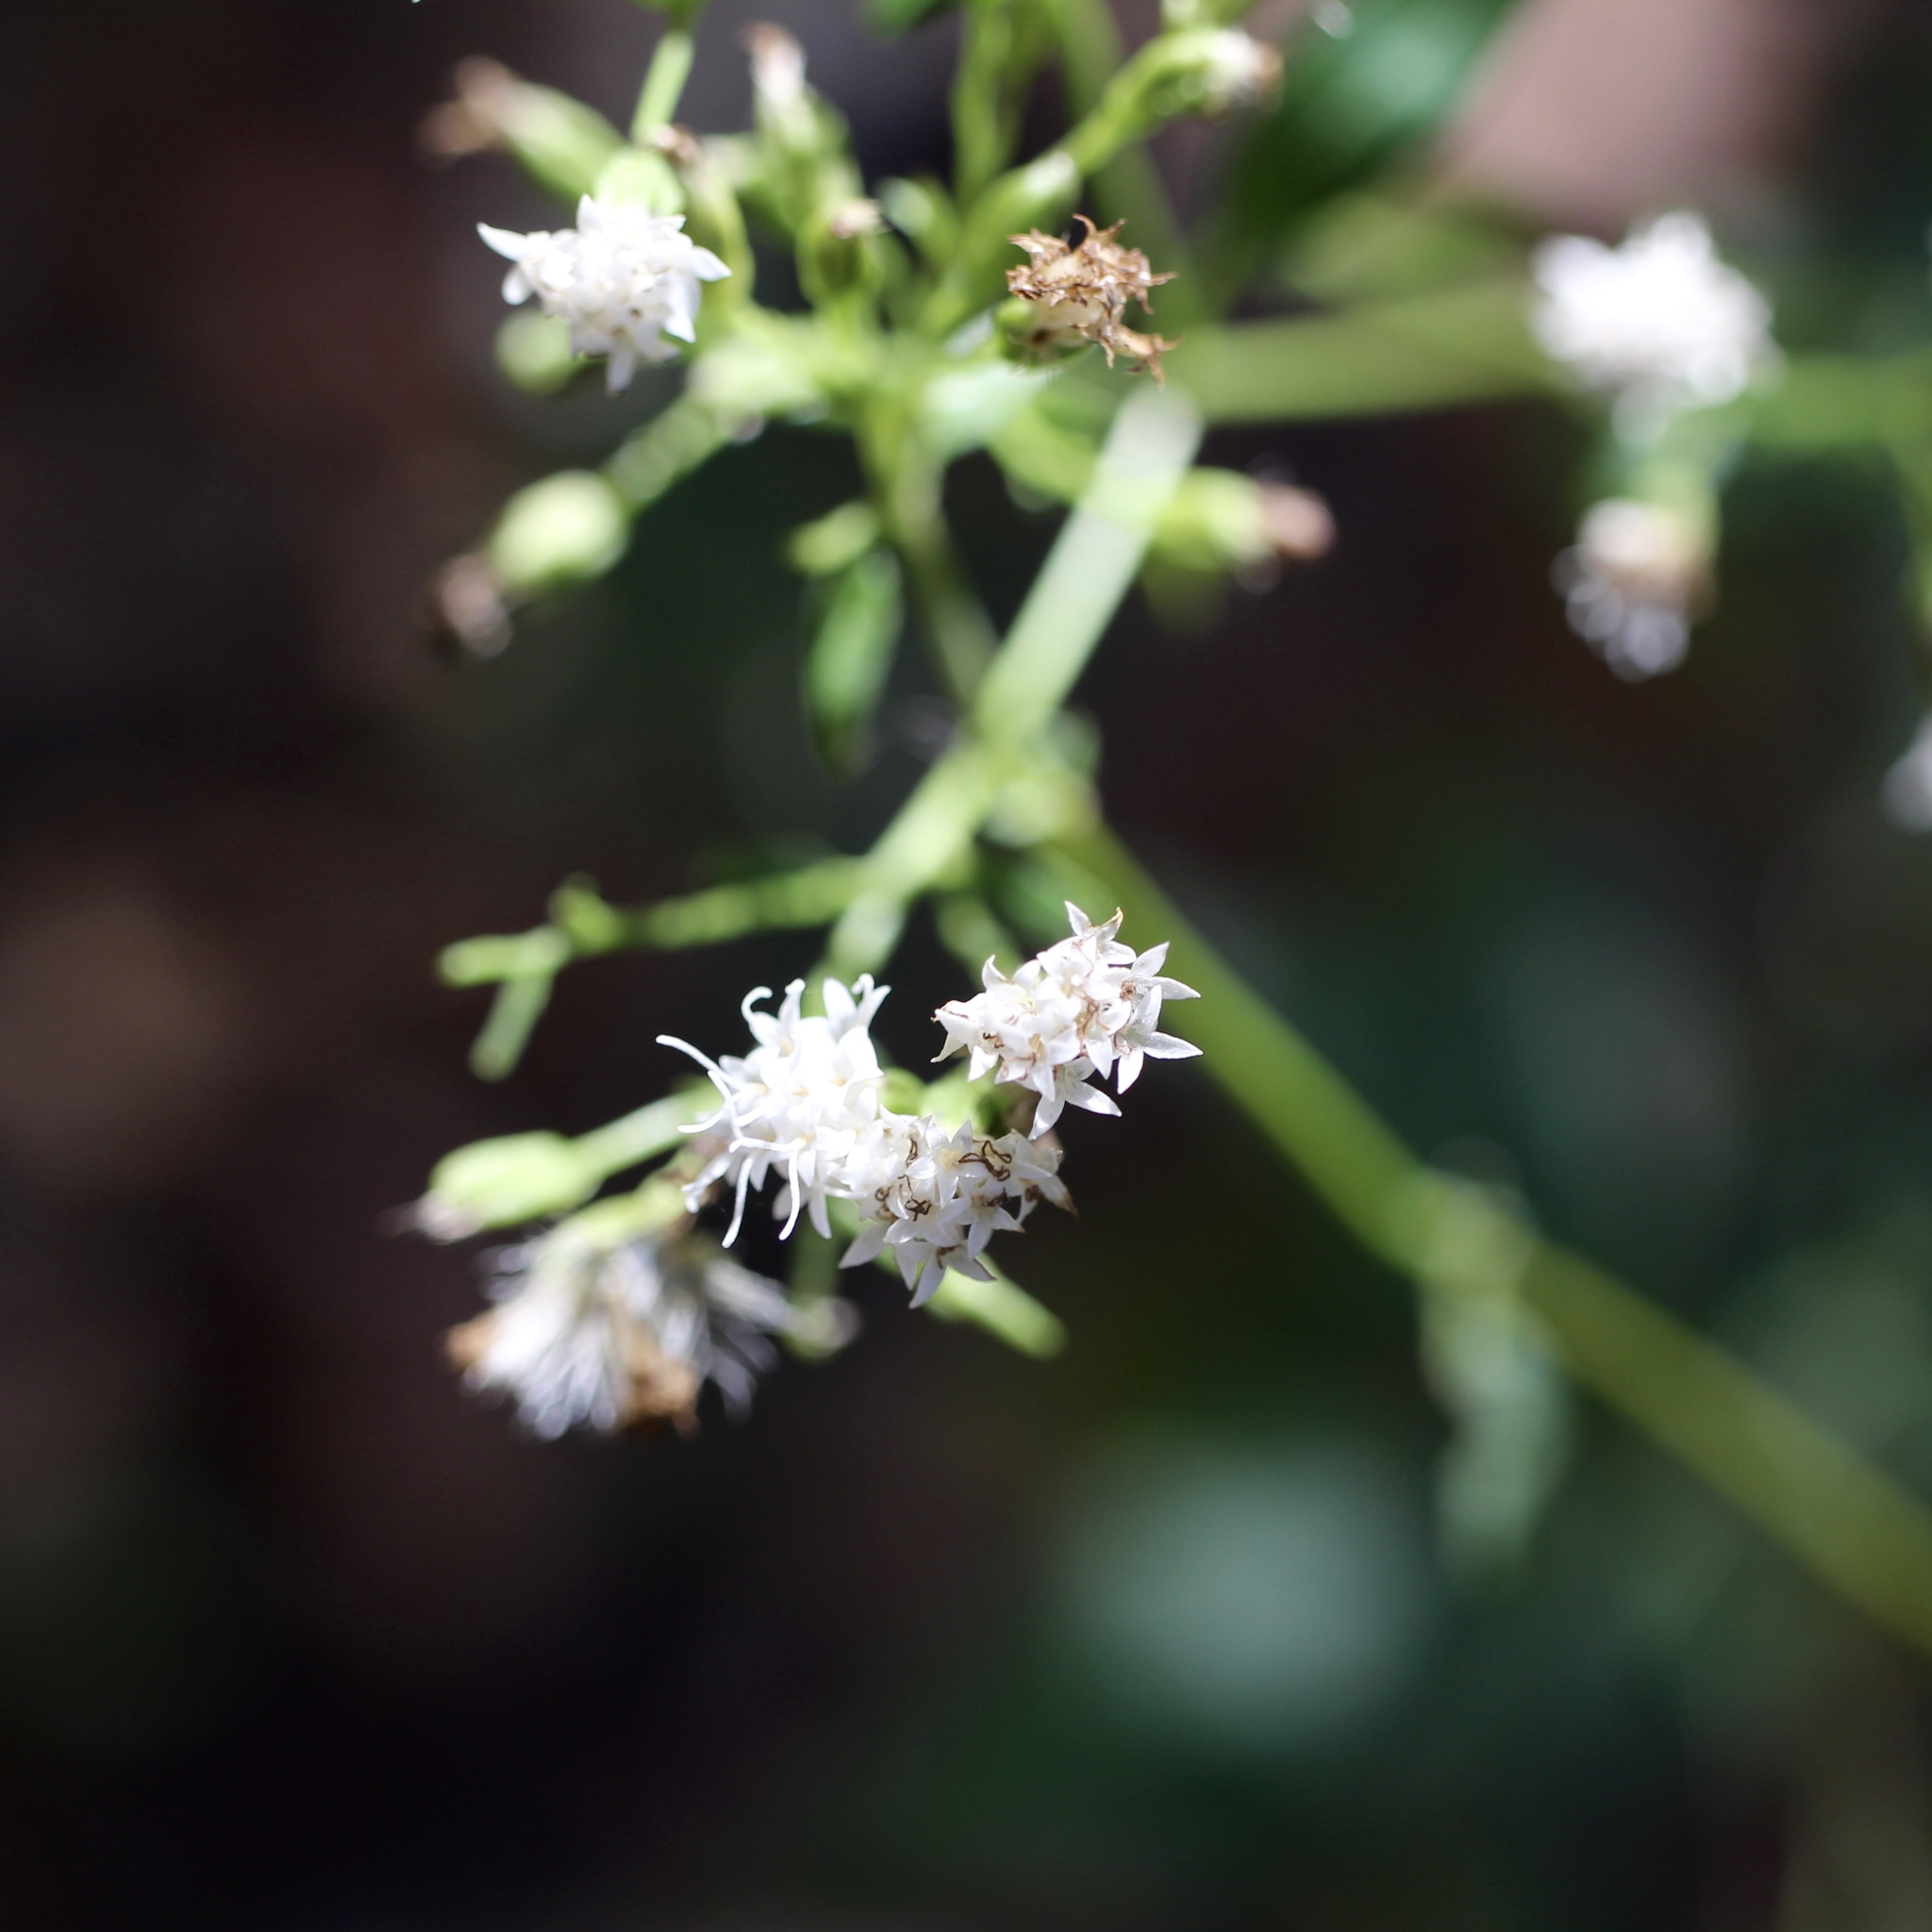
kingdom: Plantae
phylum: Tracheophyta
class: Magnoliopsida
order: Asterales
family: Asteraceae
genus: Ageratina
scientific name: Ageratina altissima
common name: White snakeroot
